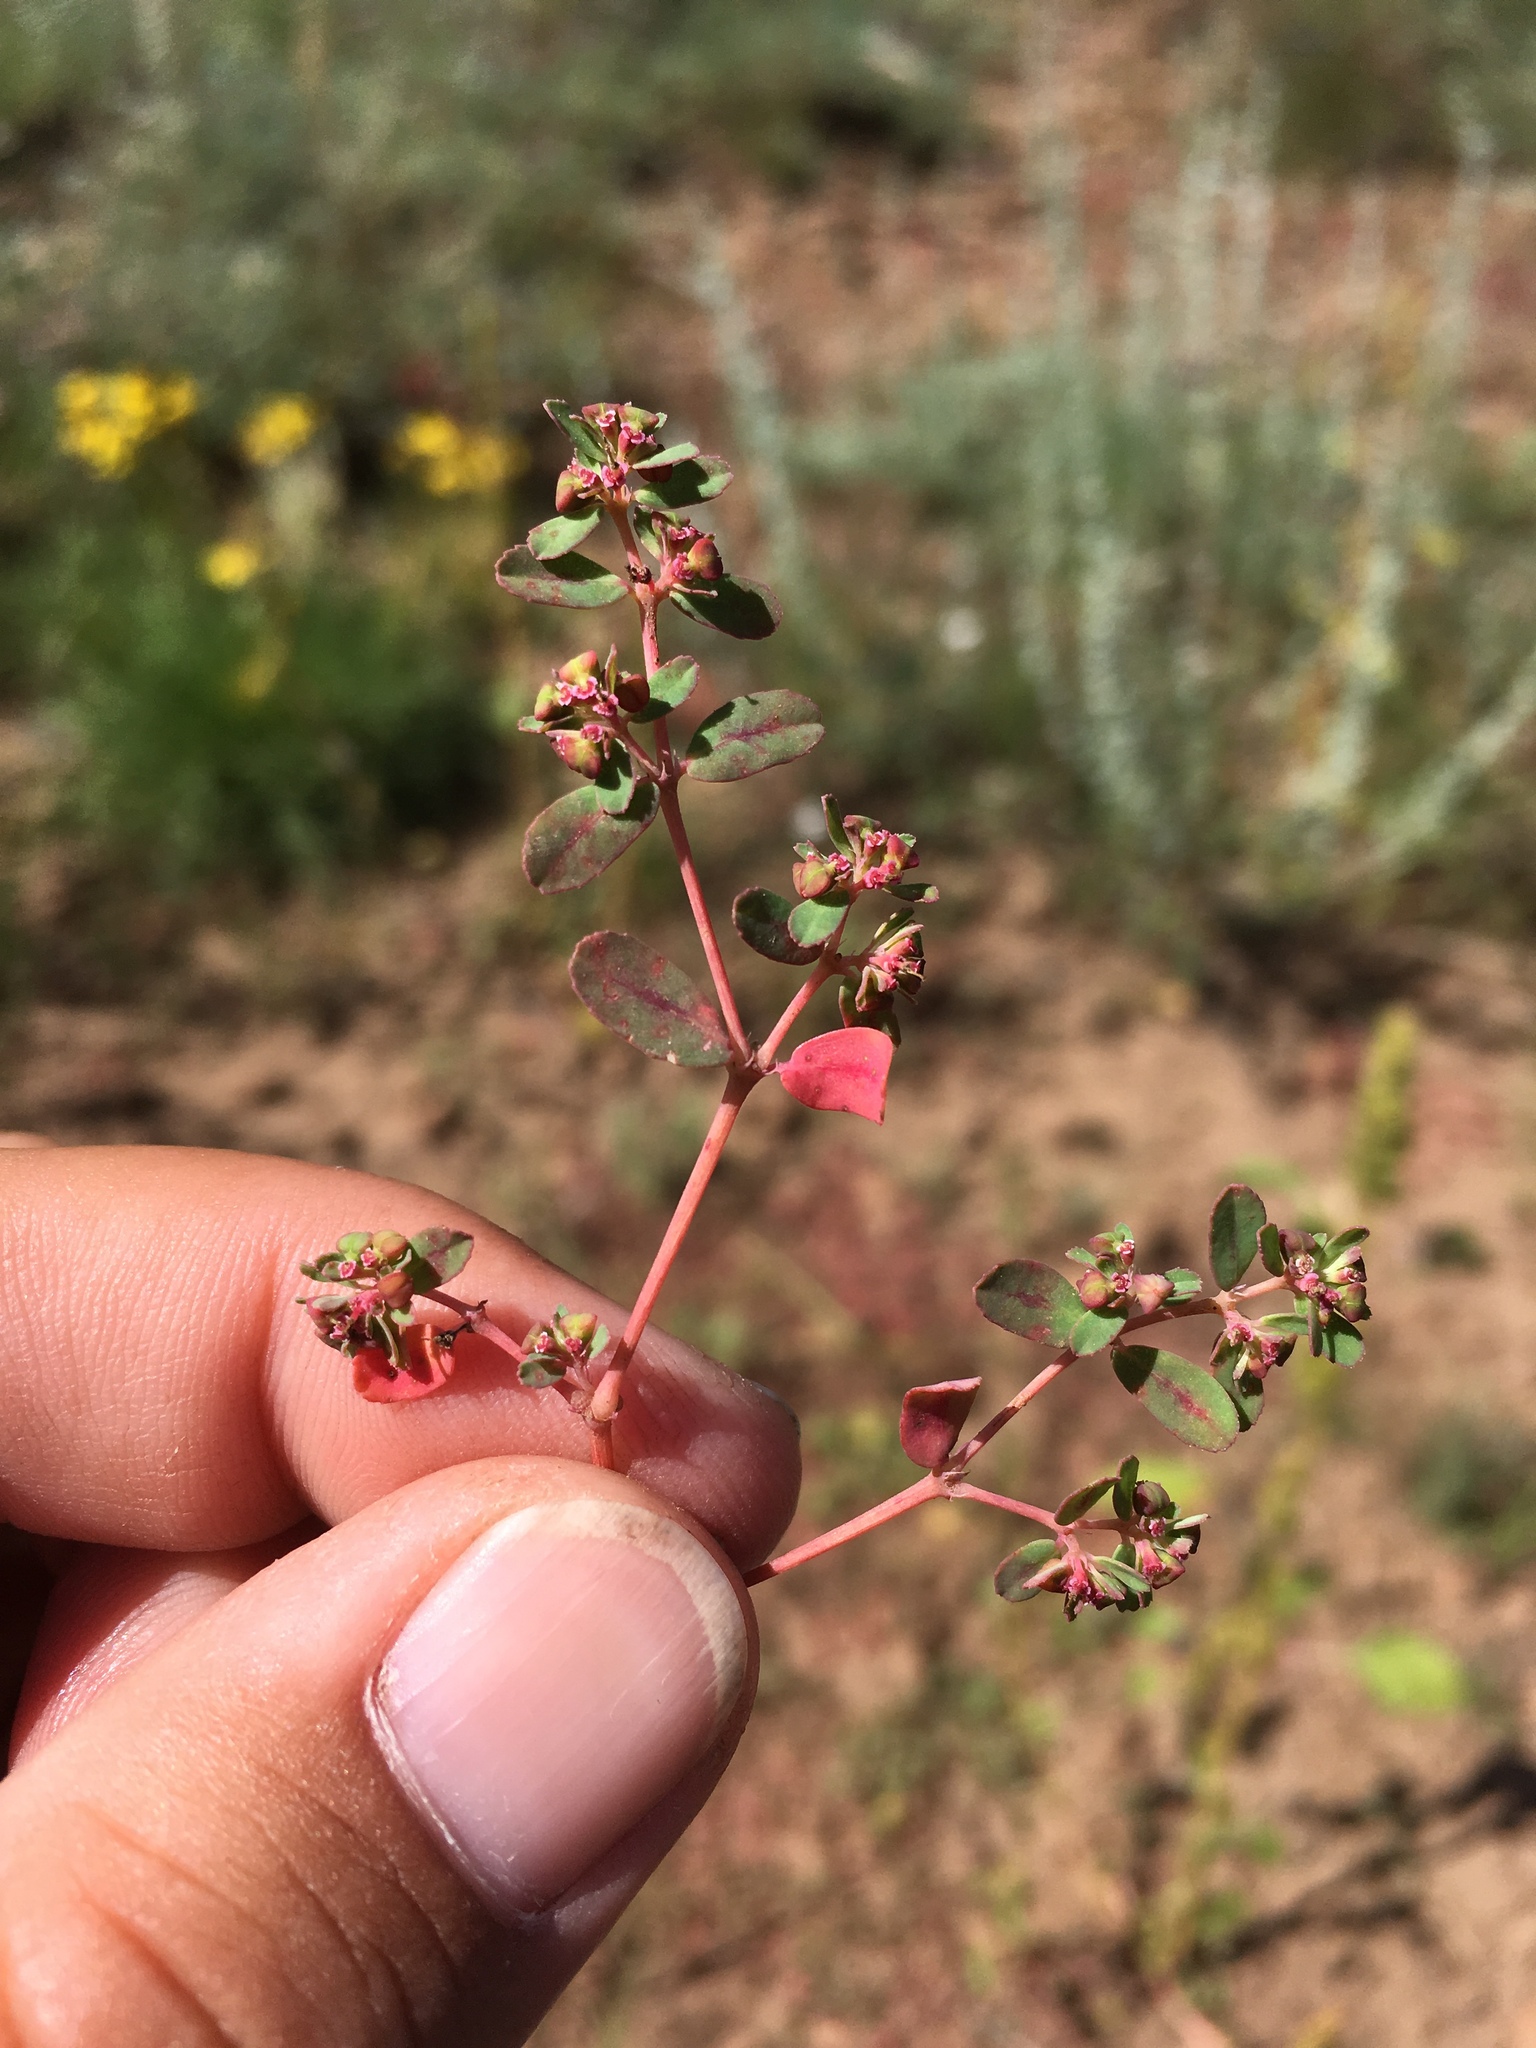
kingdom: Plantae
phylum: Tracheophyta
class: Magnoliopsida
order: Malpighiales
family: Euphorbiaceae
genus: Euphorbia
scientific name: Euphorbia serpillifolia
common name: Thyme-leaf spurge
